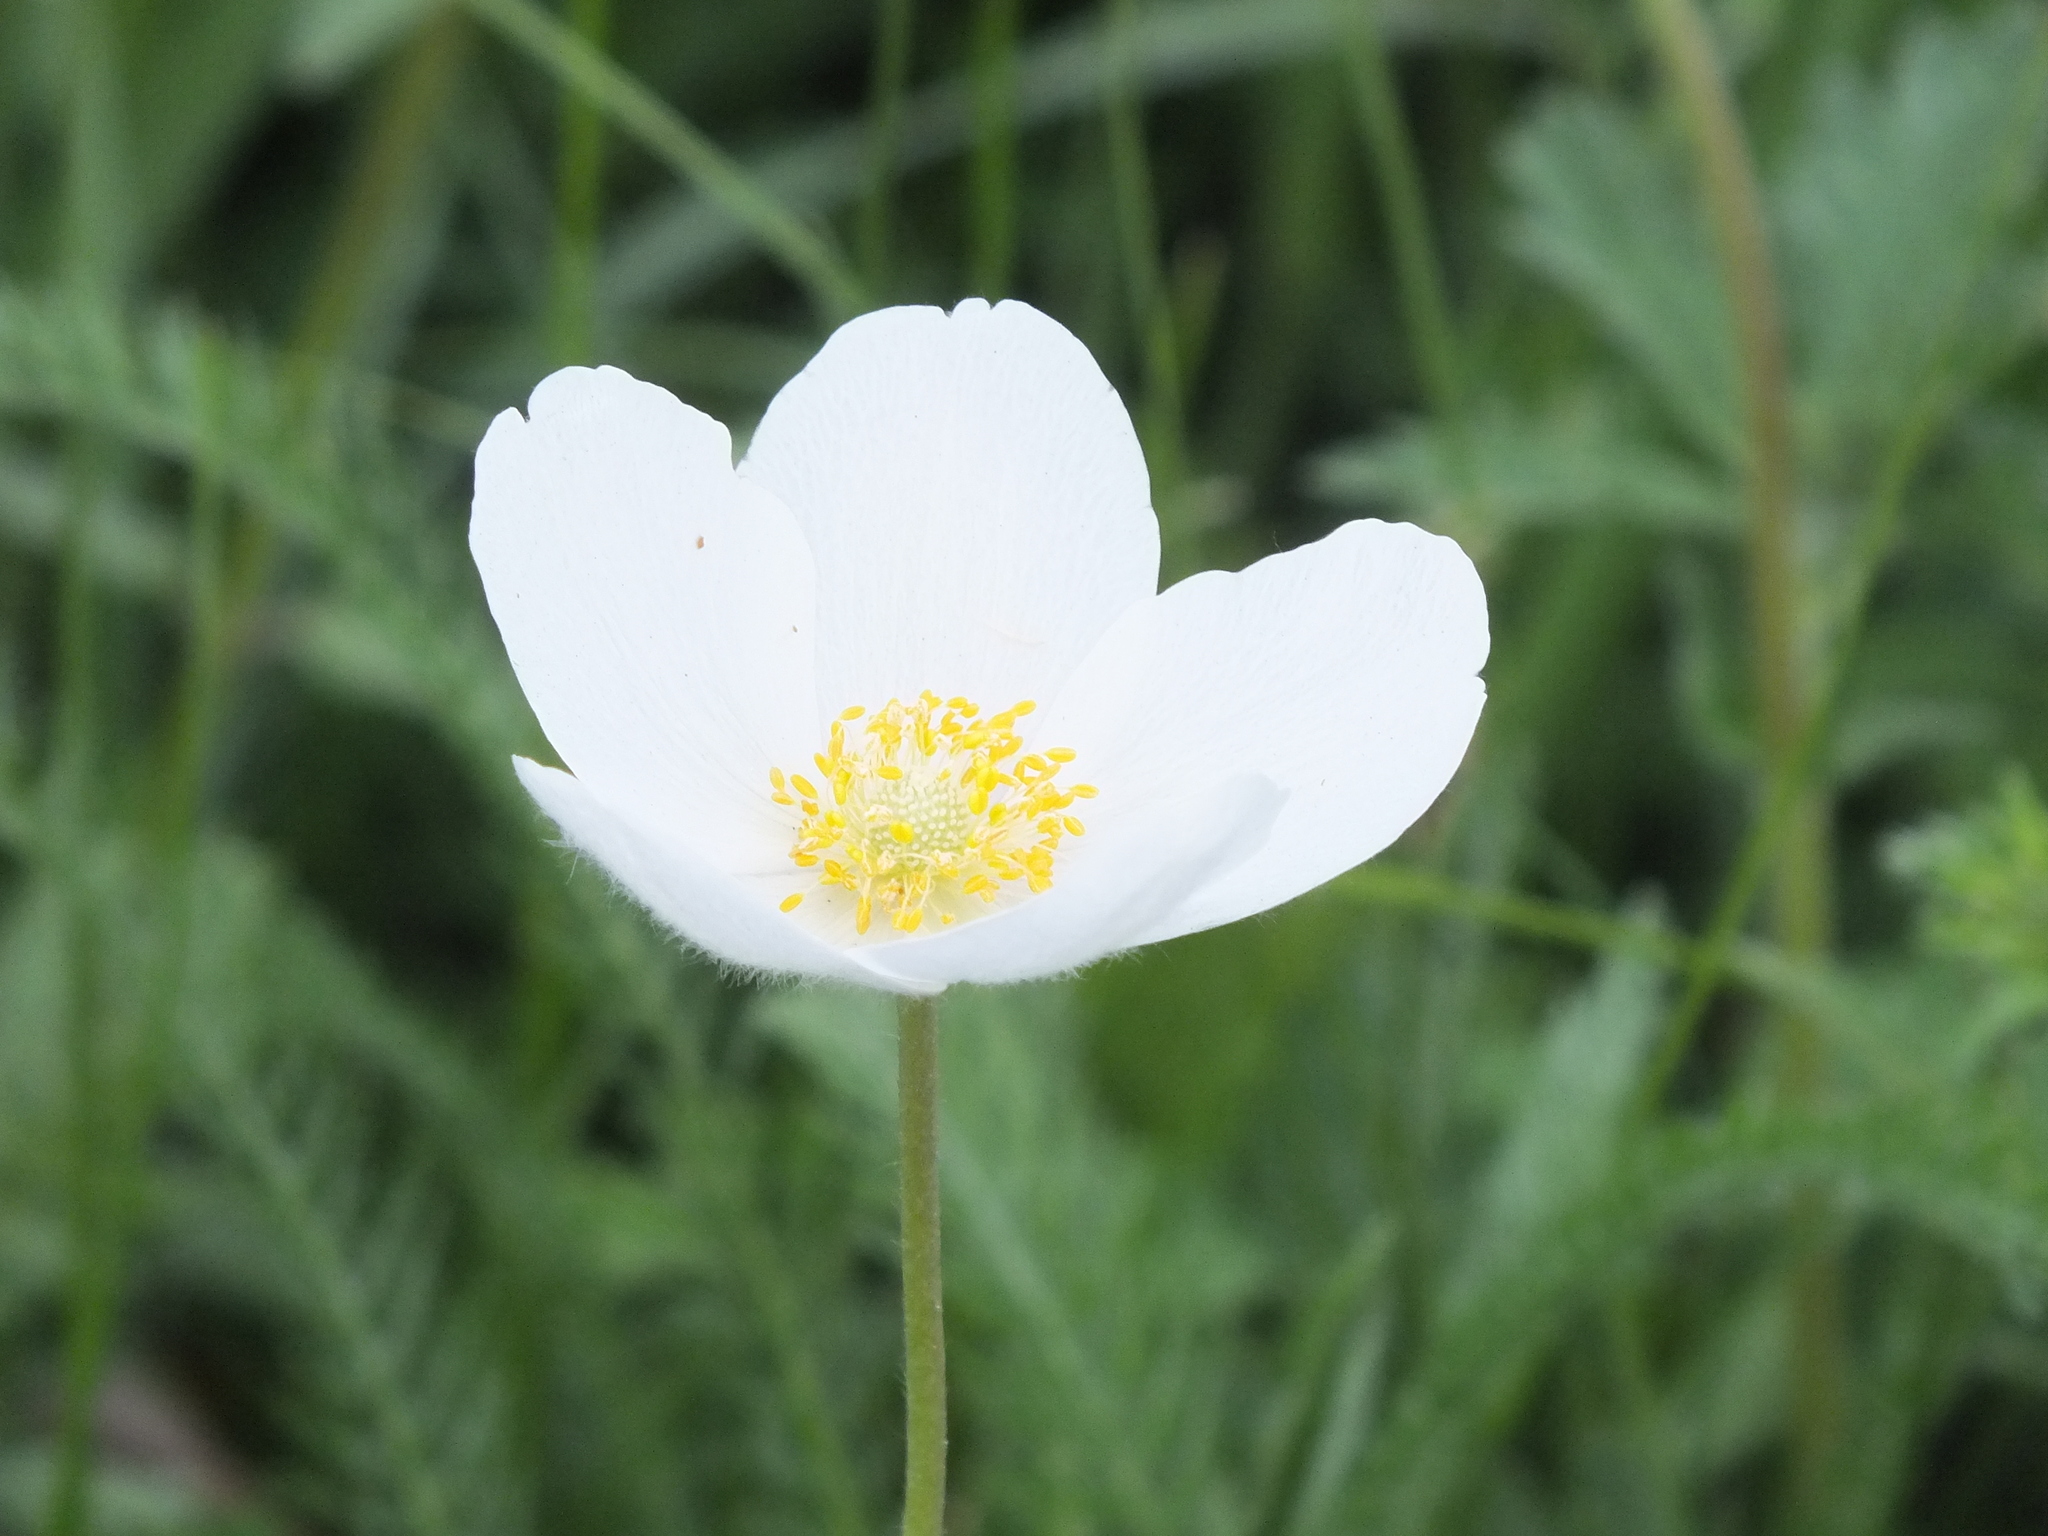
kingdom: Plantae
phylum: Tracheophyta
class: Magnoliopsida
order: Ranunculales
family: Ranunculaceae
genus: Anemone
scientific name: Anemone sylvestris
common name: Snowdrop anemone
